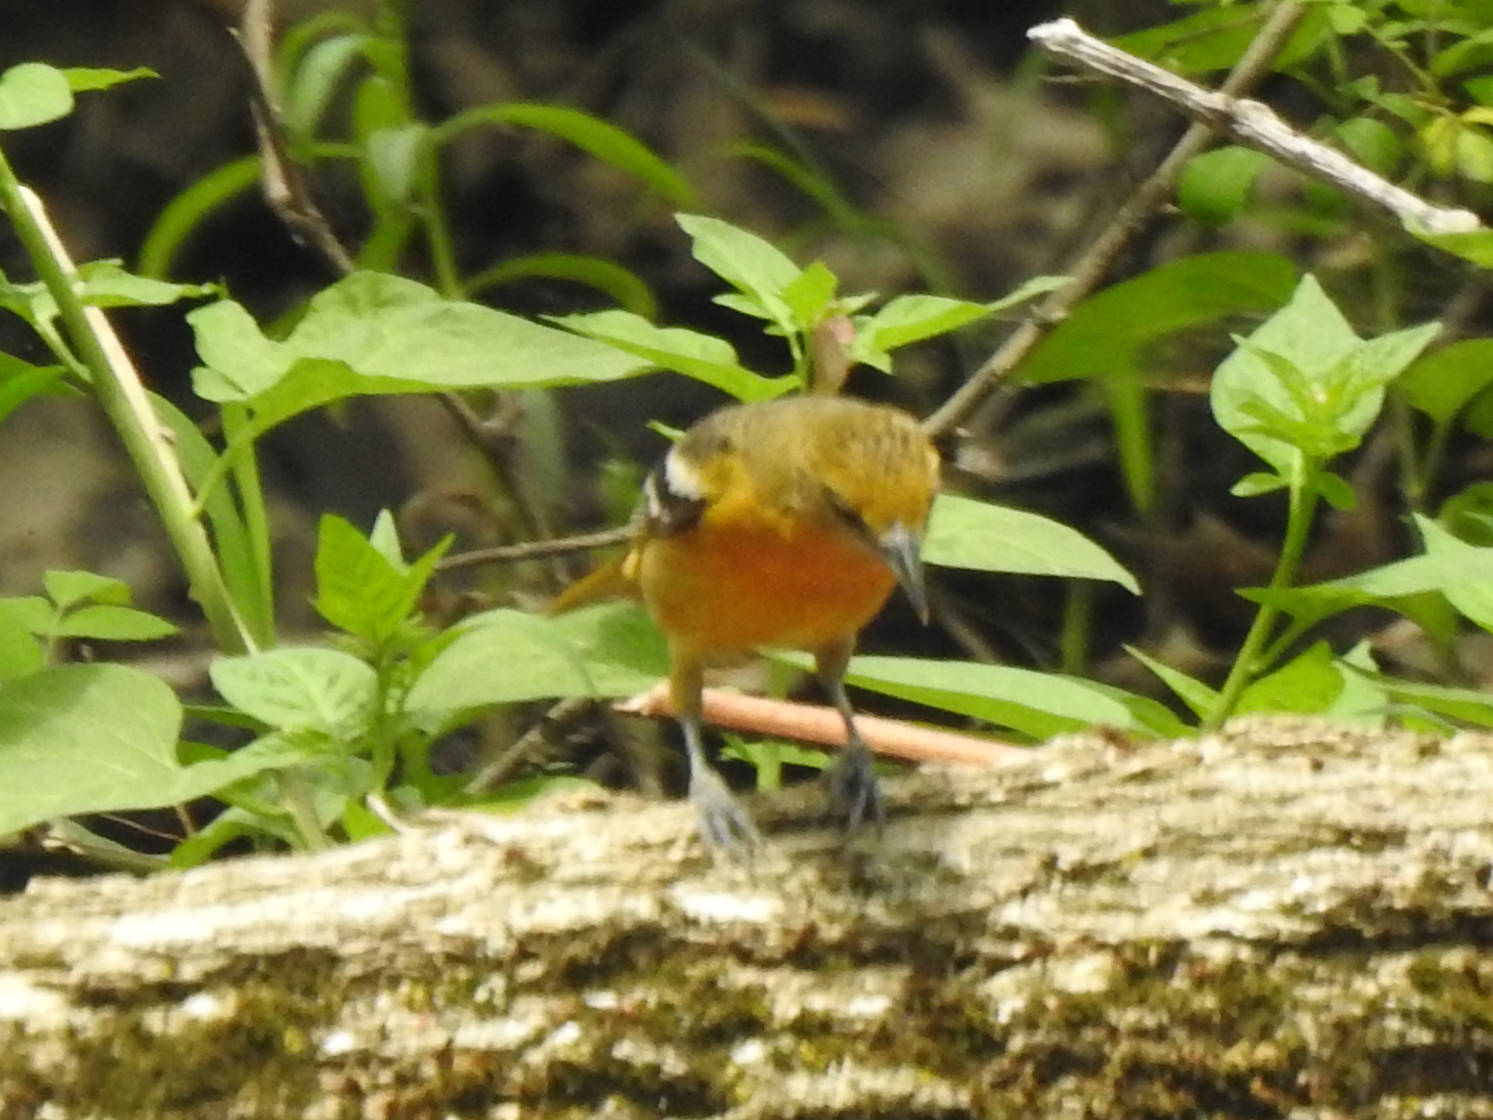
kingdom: Animalia
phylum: Chordata
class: Aves
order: Passeriformes
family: Icteridae
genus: Icterus
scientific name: Icterus galbula
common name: Baltimore oriole
